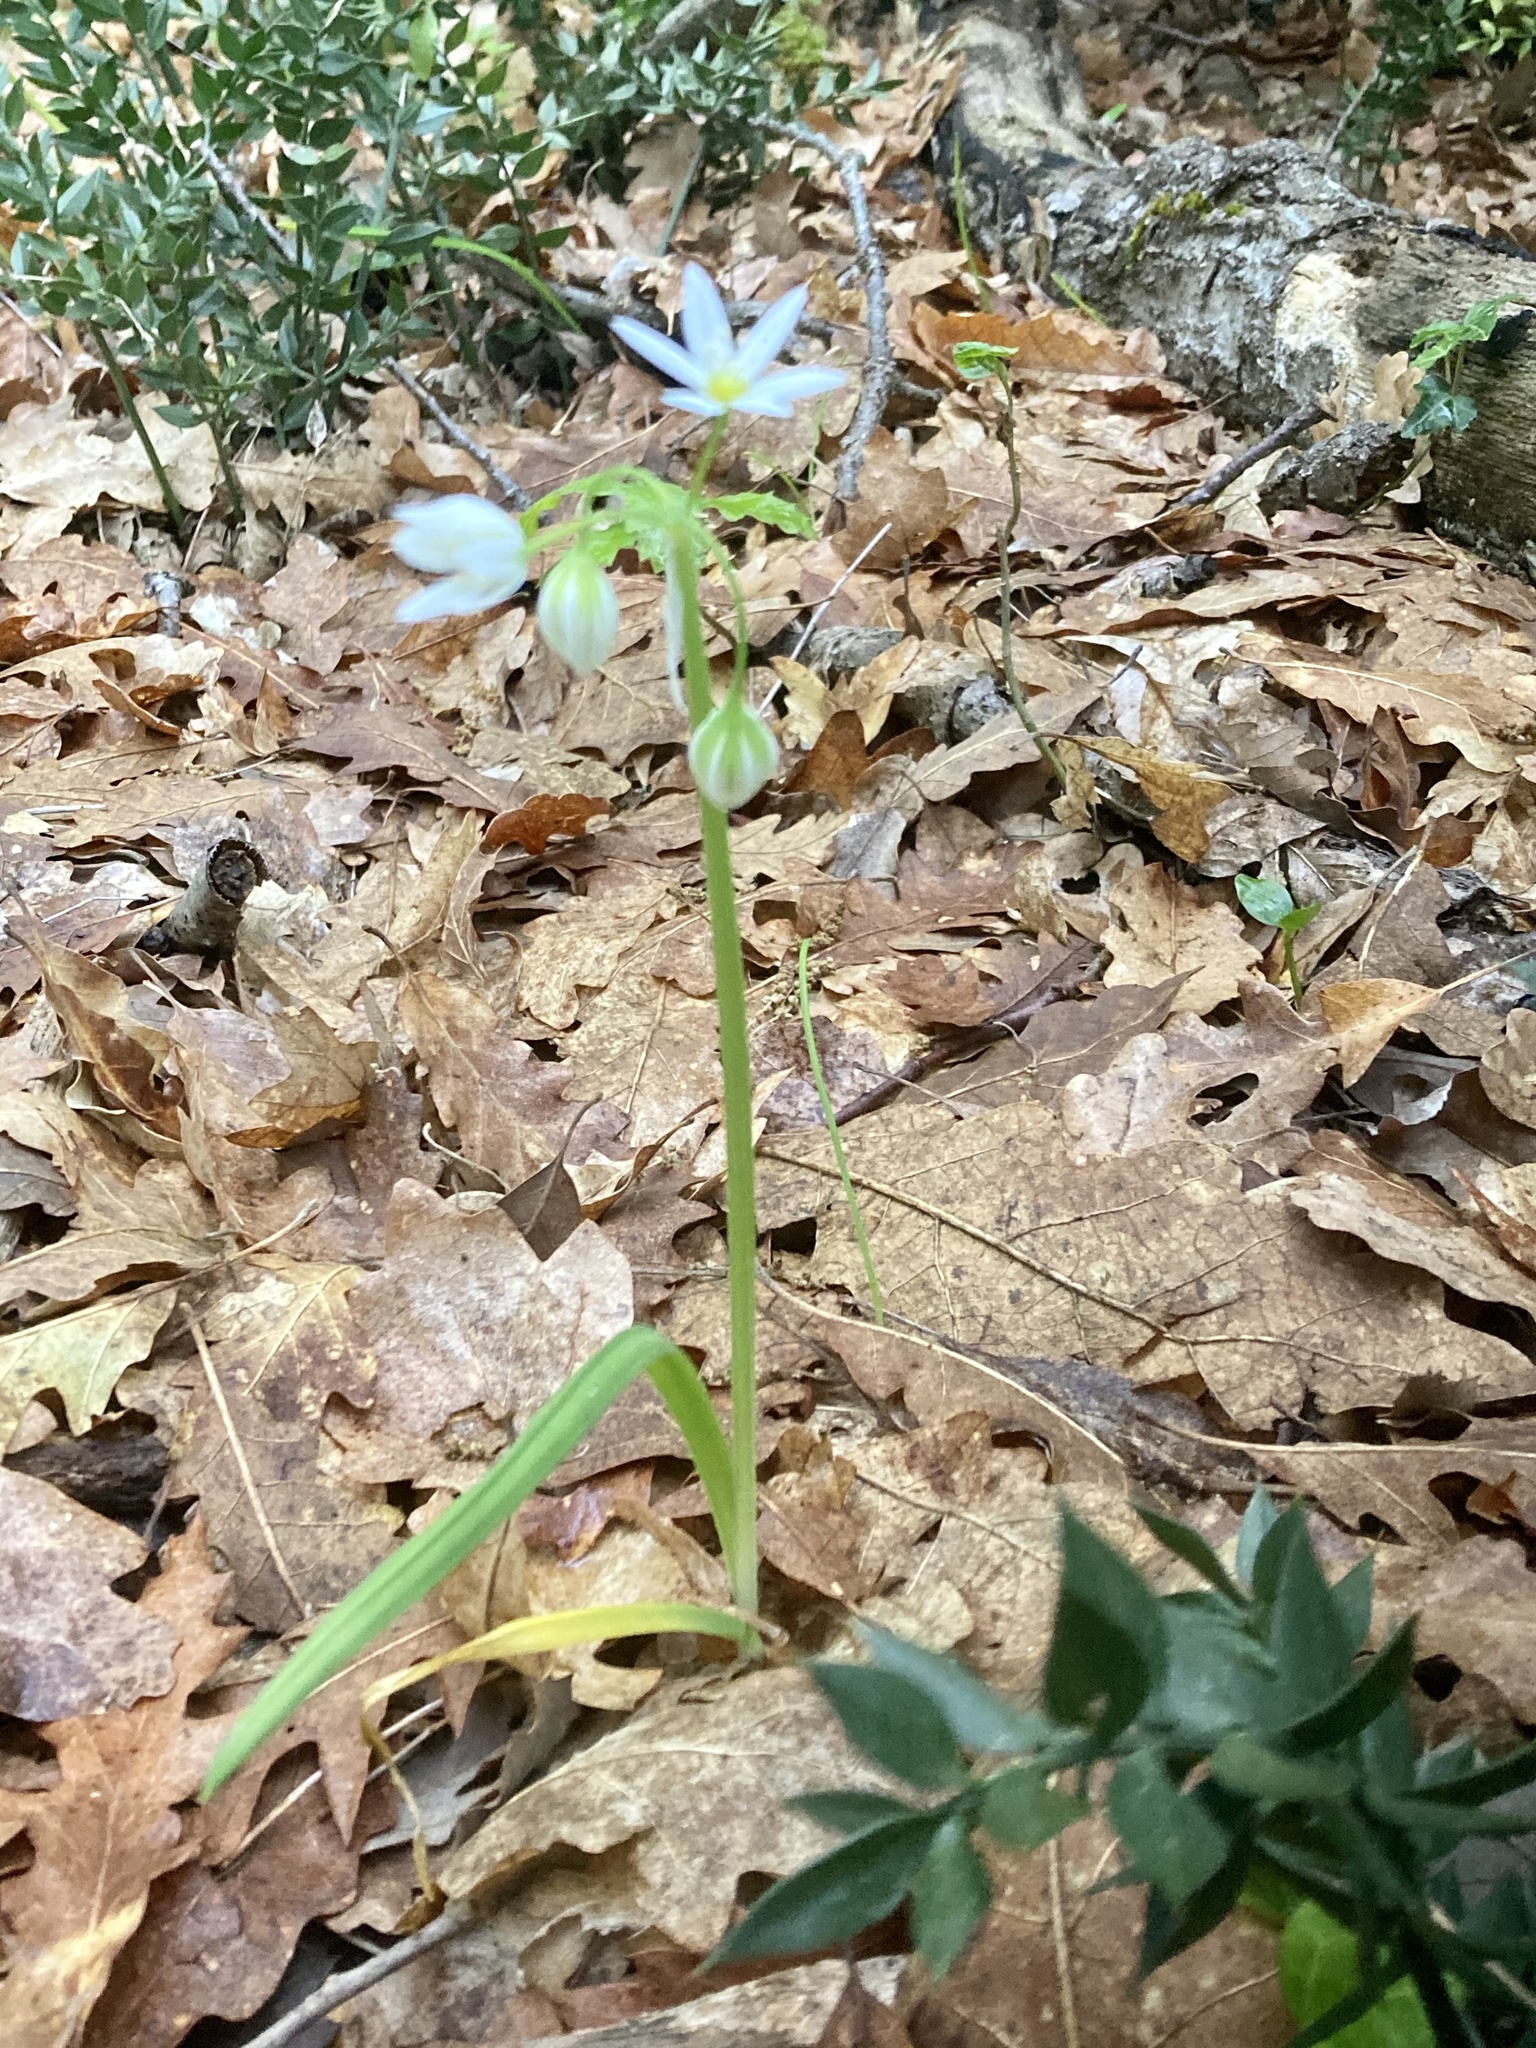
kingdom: Plantae
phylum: Tracheophyta
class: Liliopsida
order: Asparagales
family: Amaryllidaceae
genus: Allium
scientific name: Allium pendulinum
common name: Italian garlic
